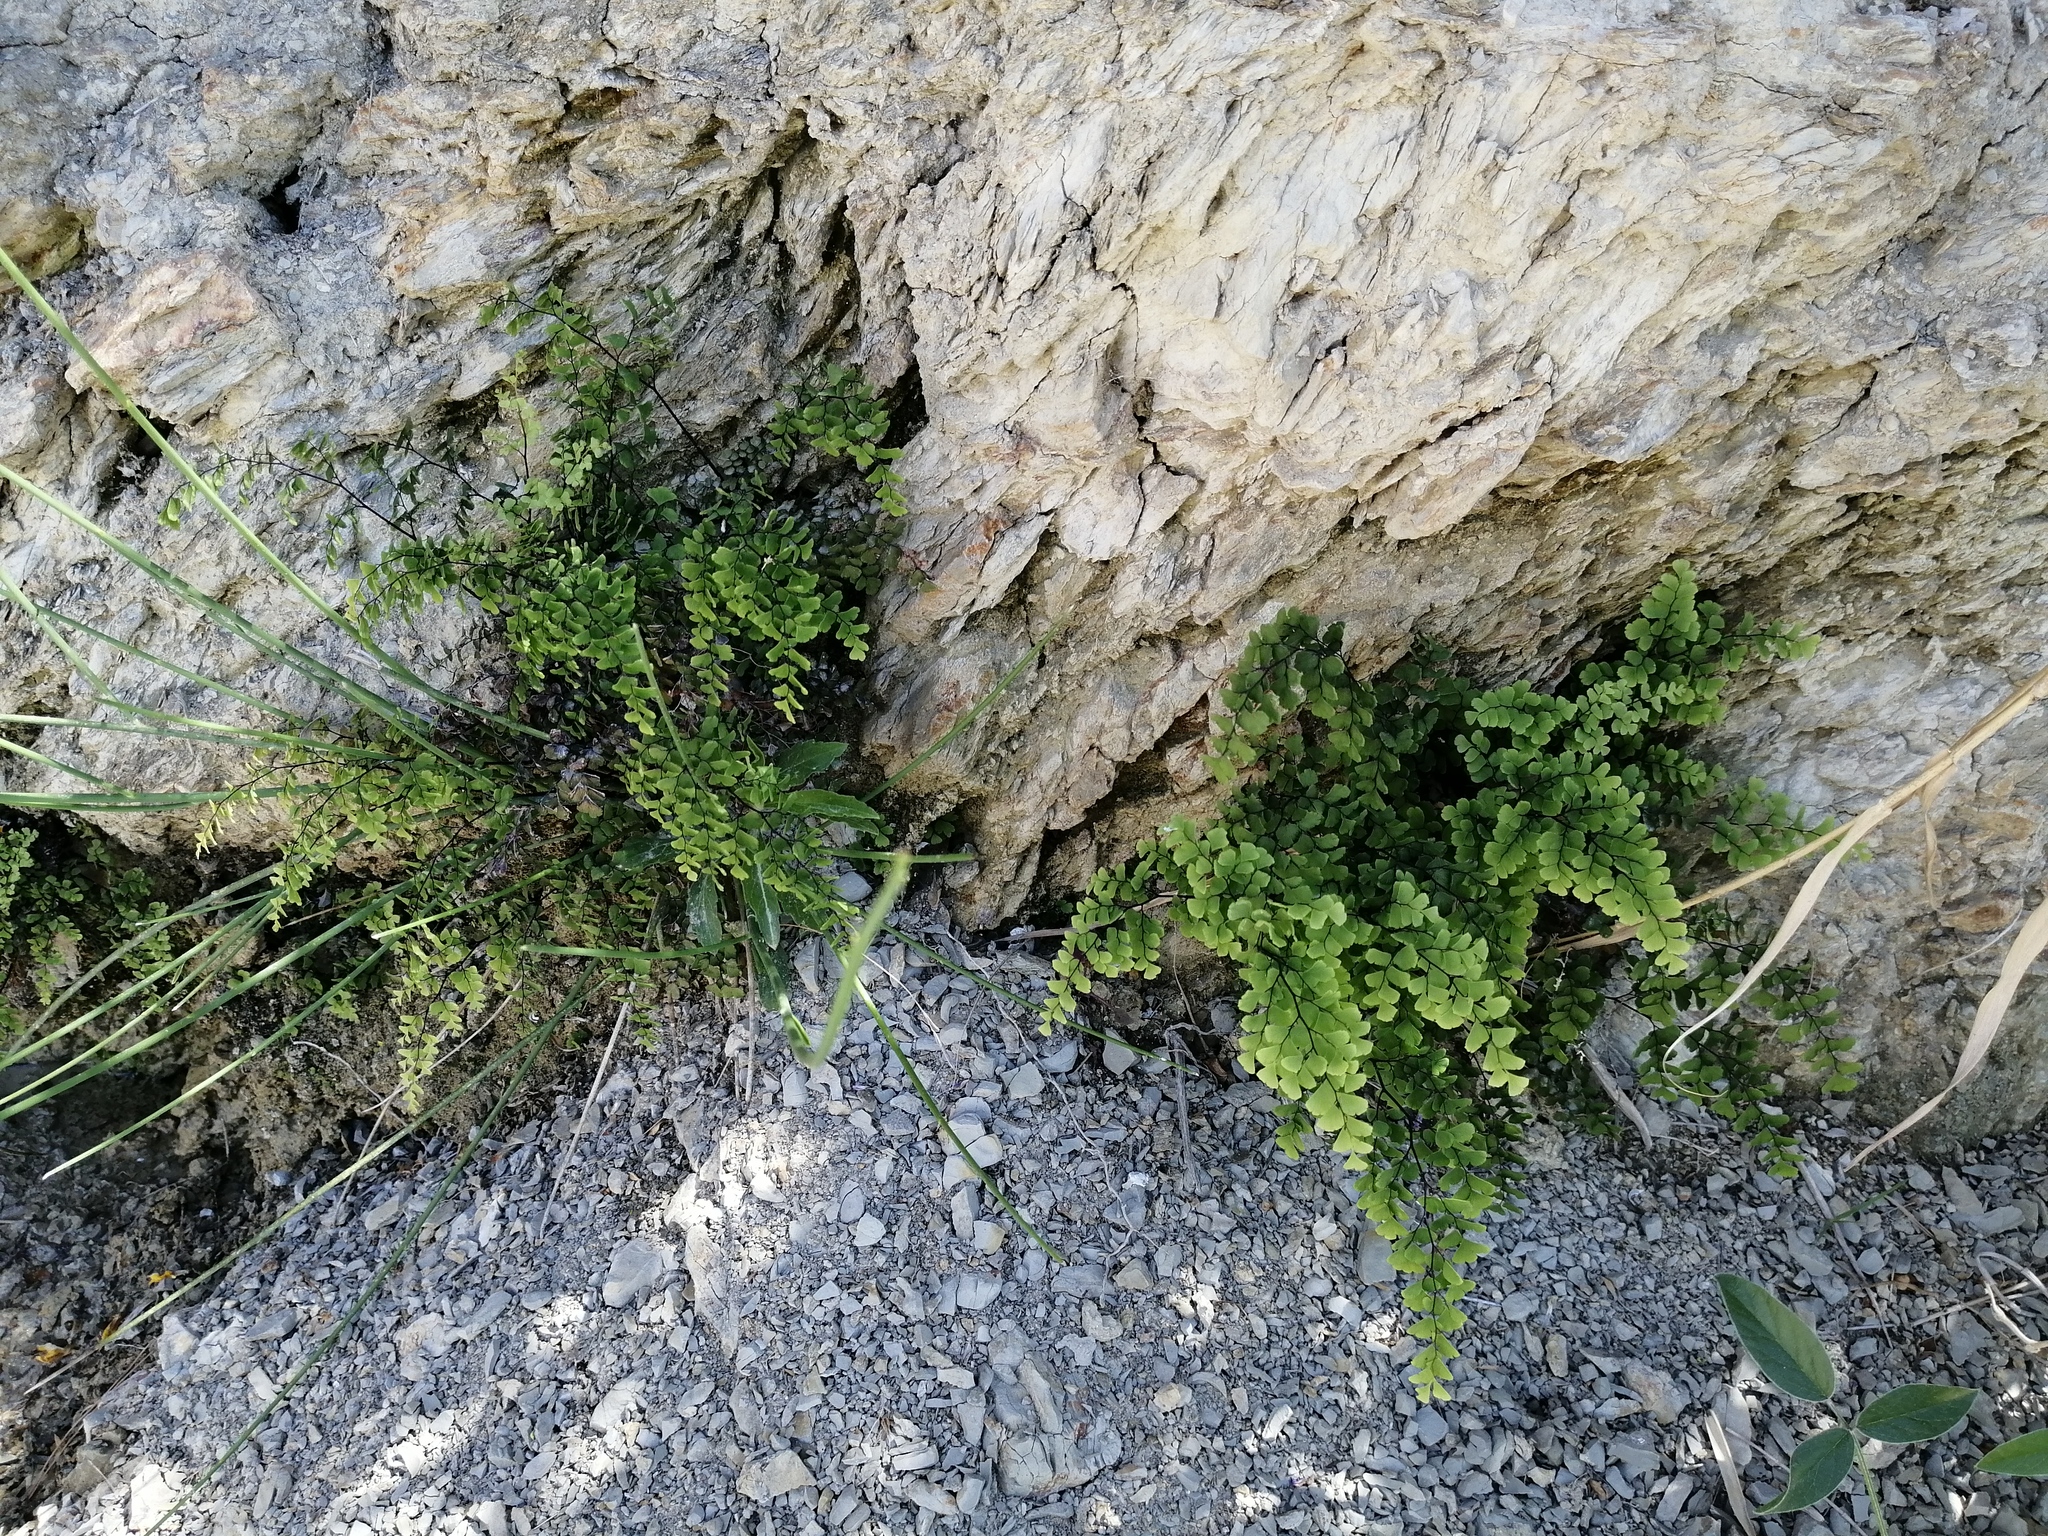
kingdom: Plantae
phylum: Tracheophyta
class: Polypodiopsida
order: Polypodiales
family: Pteridaceae
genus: Adiantum
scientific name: Adiantum capillus-veneris
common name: Maidenhair fern
